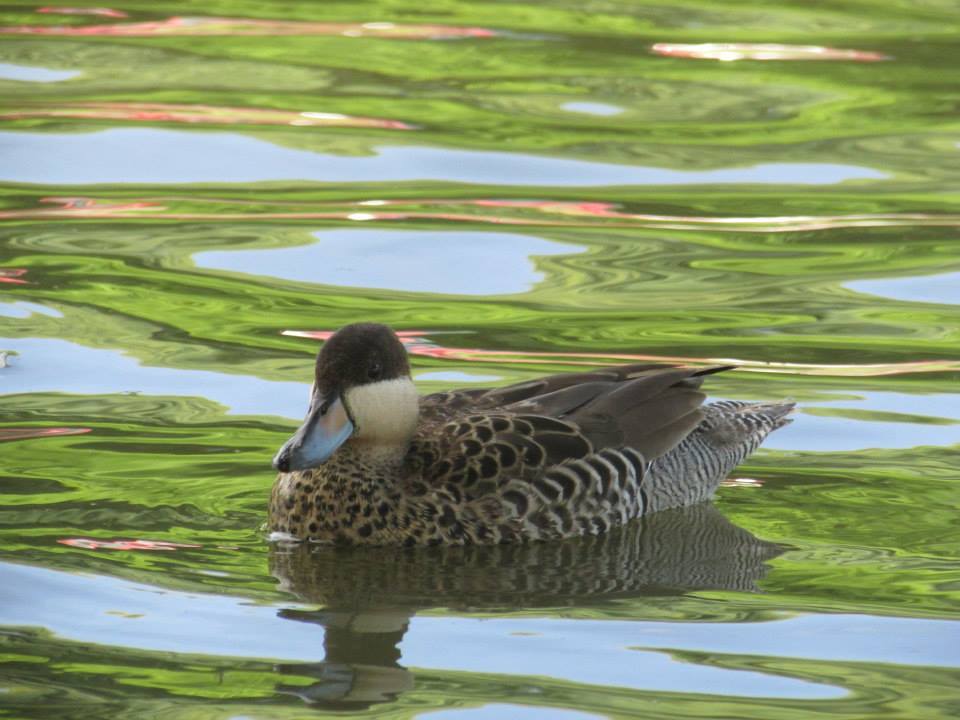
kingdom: Animalia
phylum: Chordata
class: Aves
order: Anseriformes
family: Anatidae
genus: Spatula
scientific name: Spatula versicolor
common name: Silver teal
